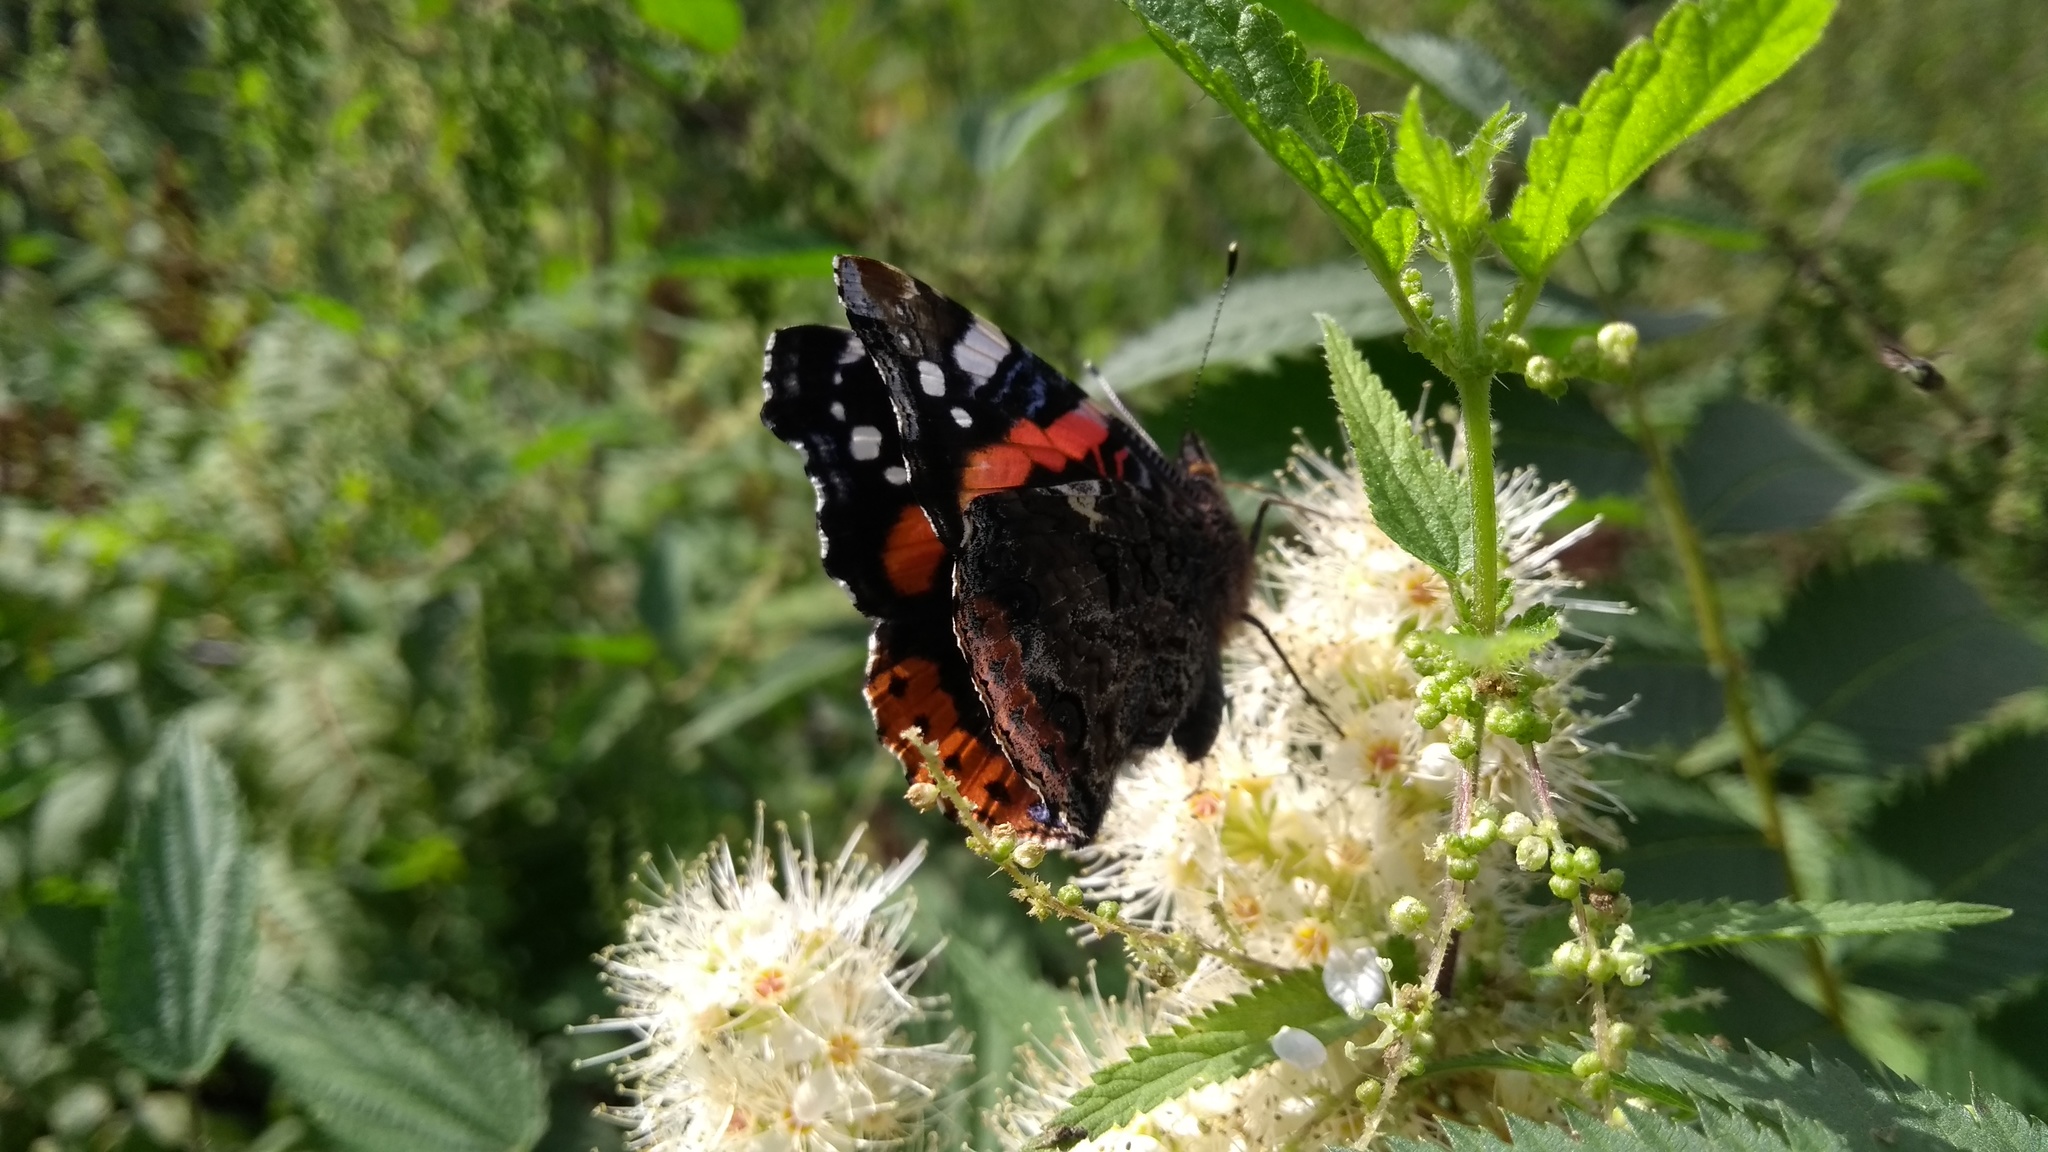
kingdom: Animalia
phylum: Arthropoda
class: Insecta
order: Lepidoptera
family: Nymphalidae
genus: Vanessa
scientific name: Vanessa atalanta
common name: Red admiral
